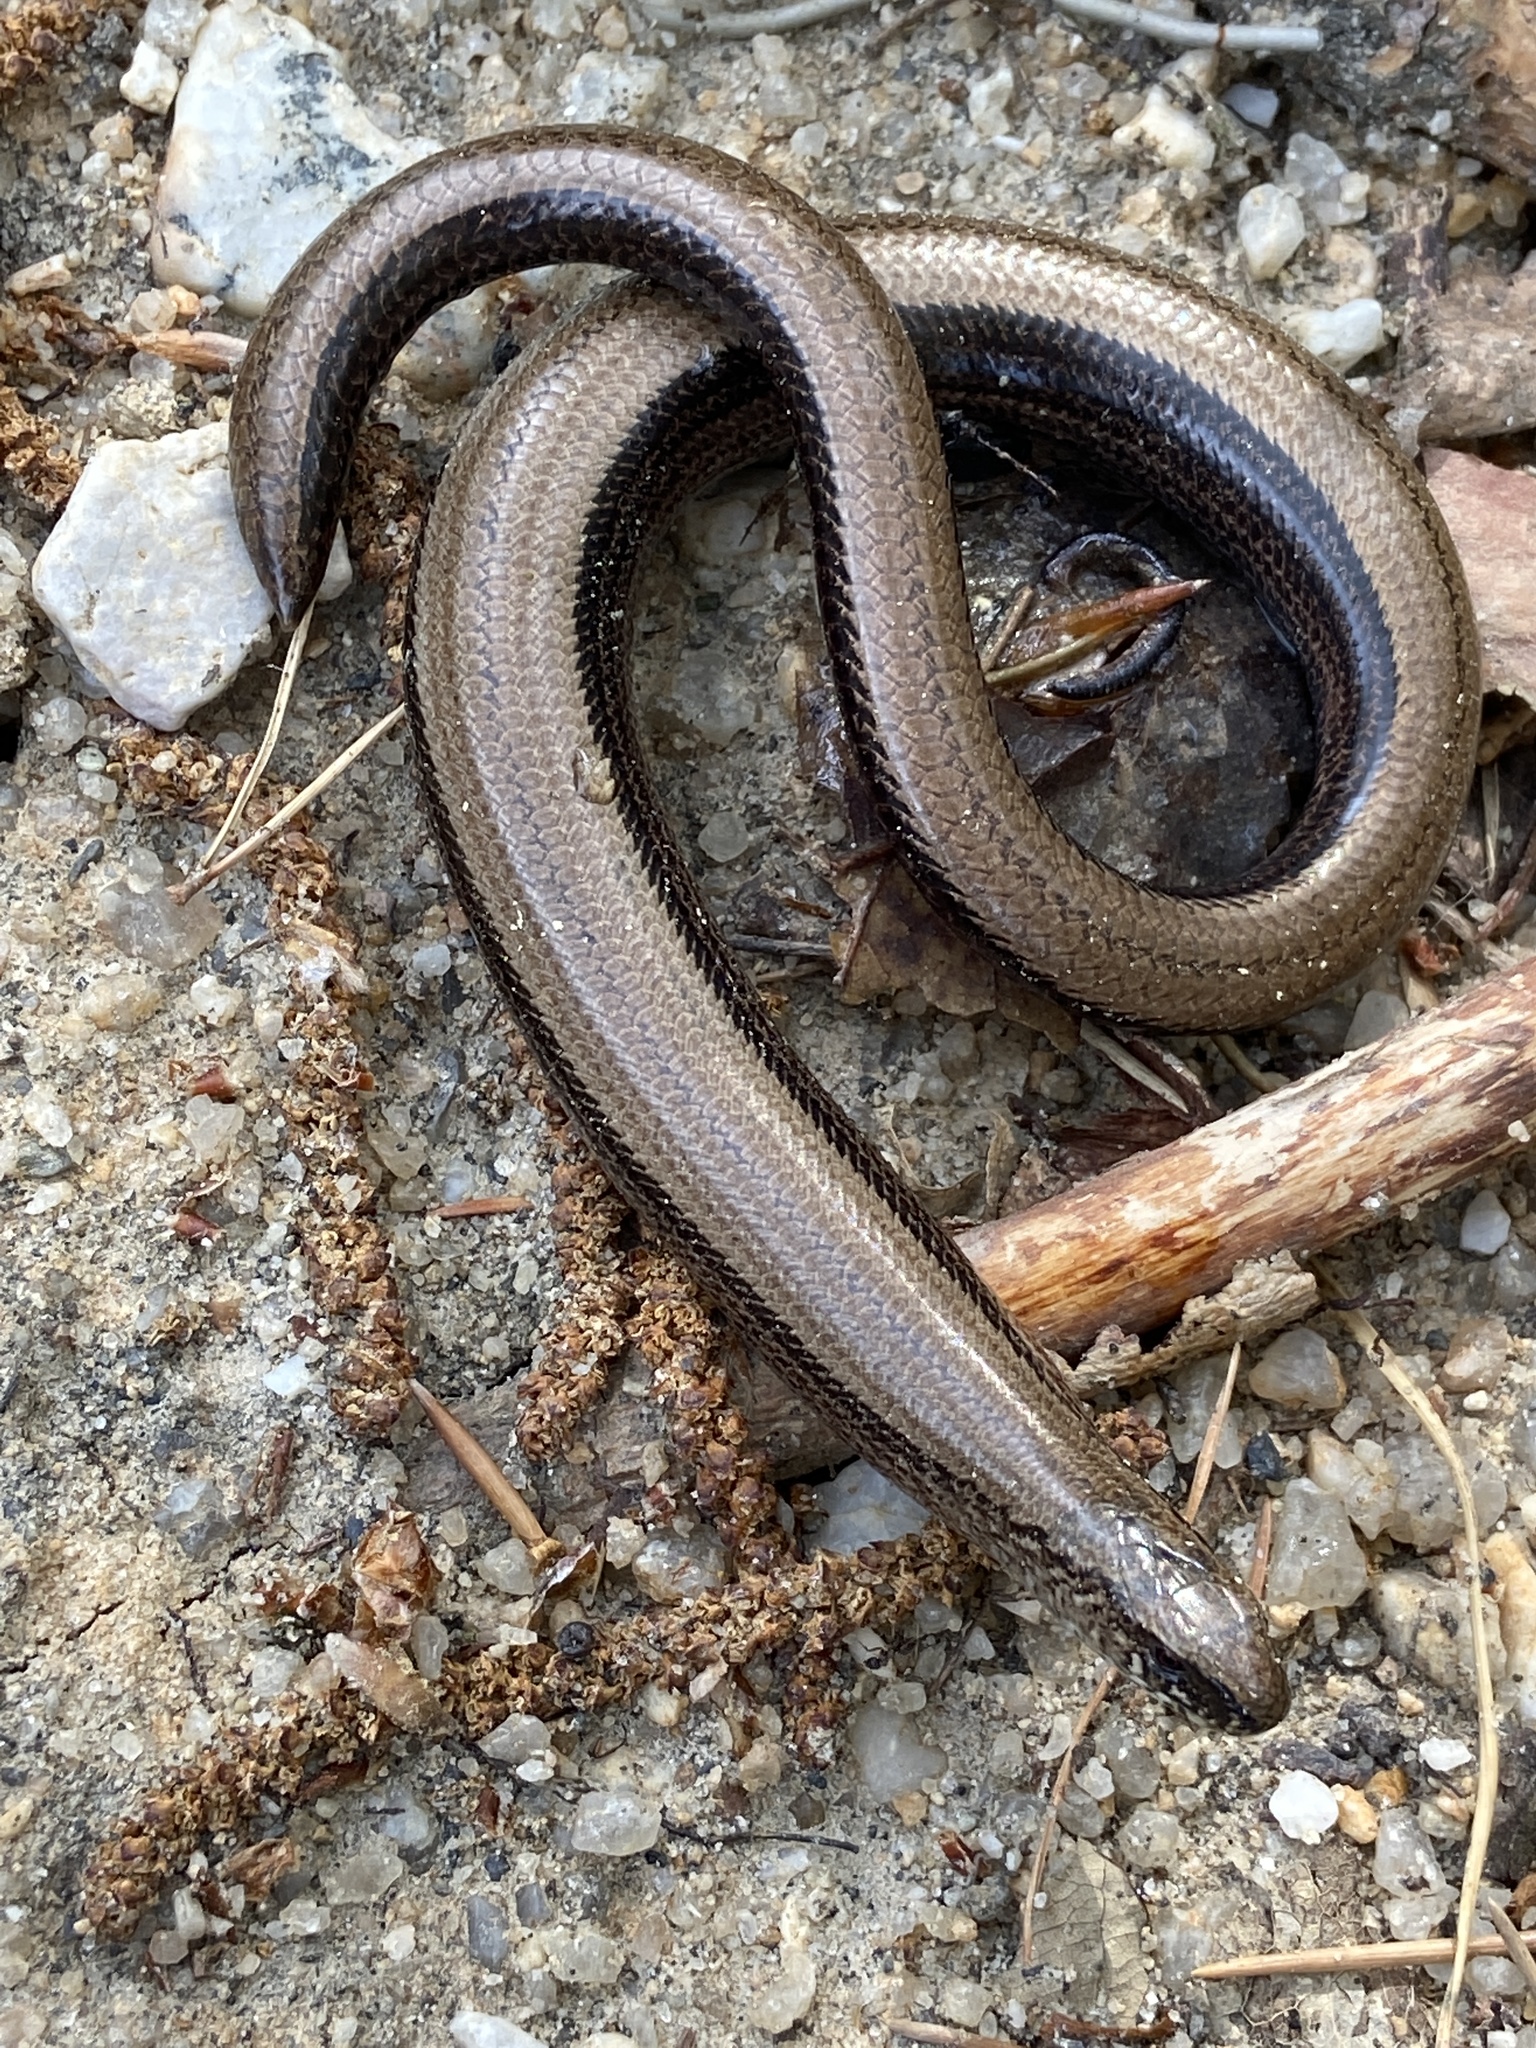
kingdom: Animalia
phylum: Chordata
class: Squamata
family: Anguidae
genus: Anguis
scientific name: Anguis fragilis
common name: Slow worm
